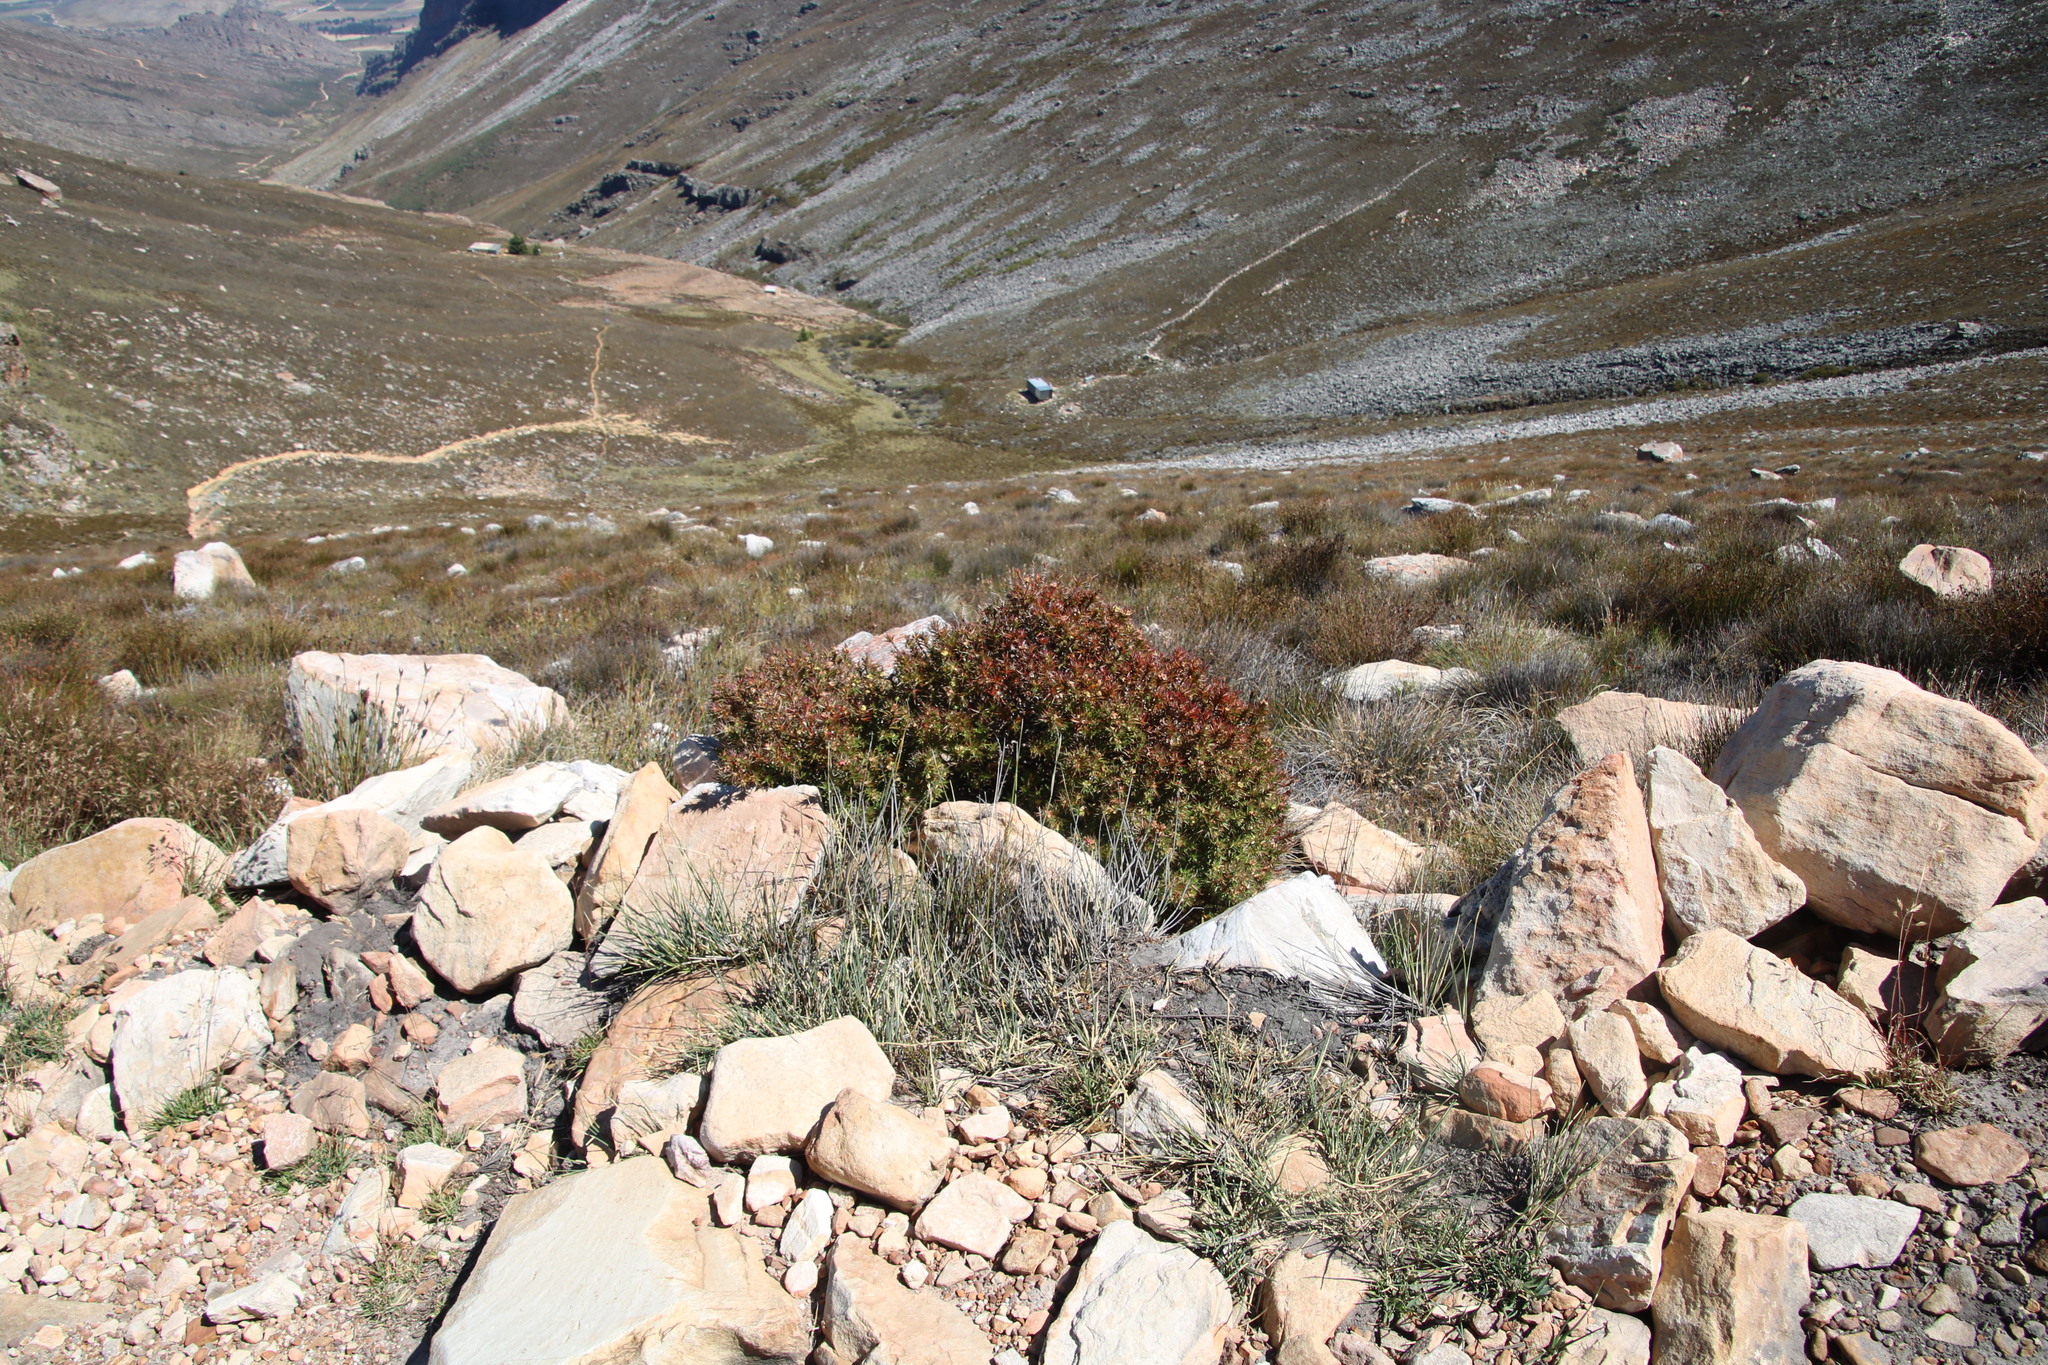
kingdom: Plantae
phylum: Tracheophyta
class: Magnoliopsida
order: Rosales
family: Rosaceae
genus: Cliffortia
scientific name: Cliffortia dregeana
